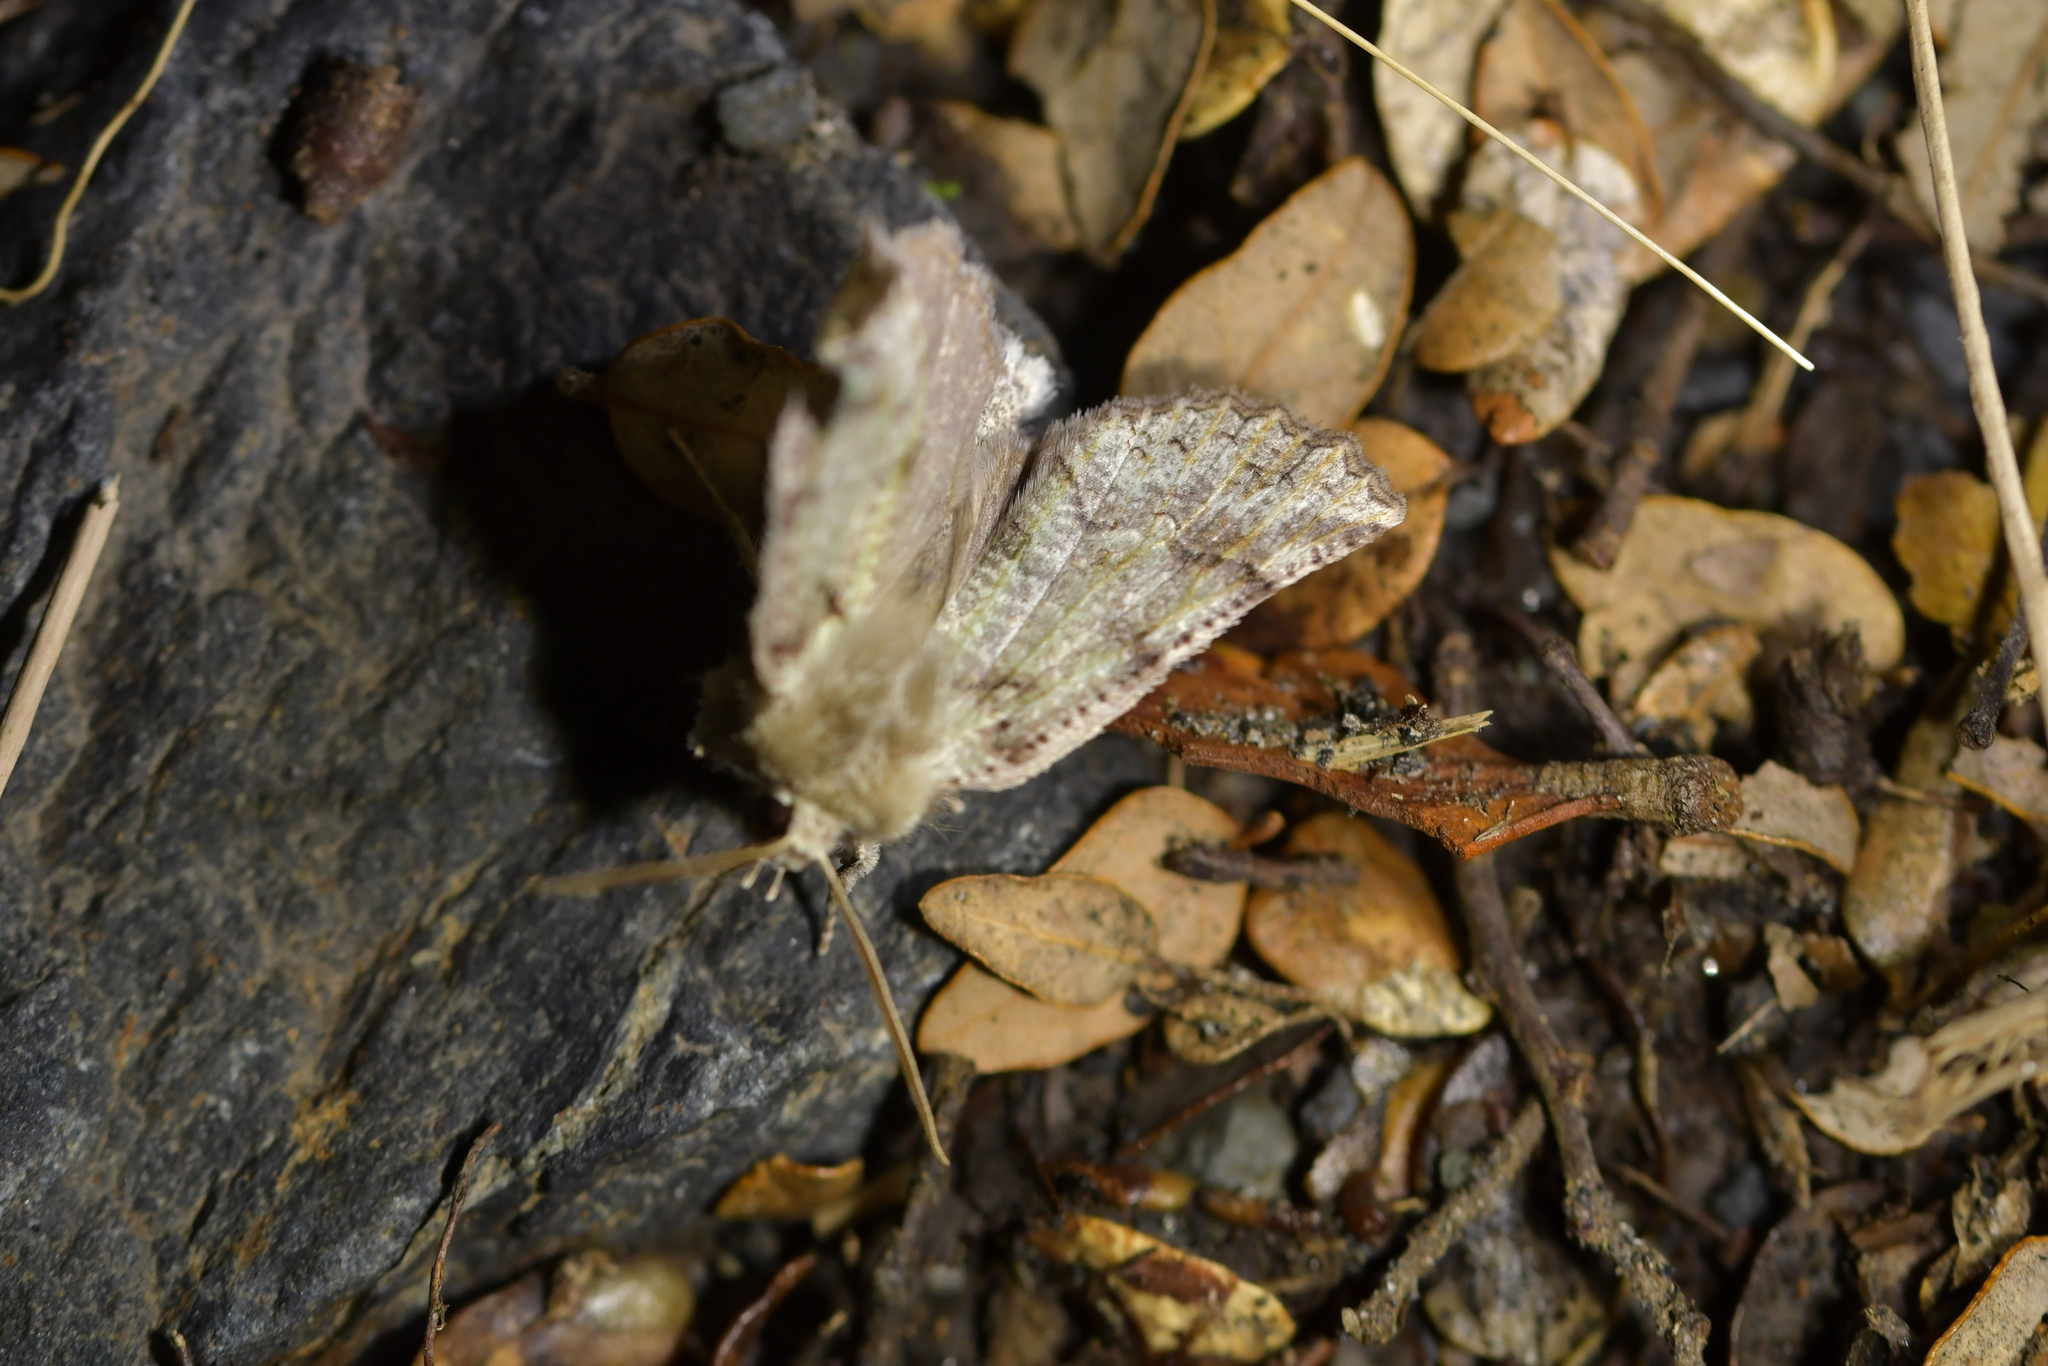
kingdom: Animalia
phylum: Arthropoda
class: Insecta
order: Lepidoptera
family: Geometridae
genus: Declana
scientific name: Declana floccosa
